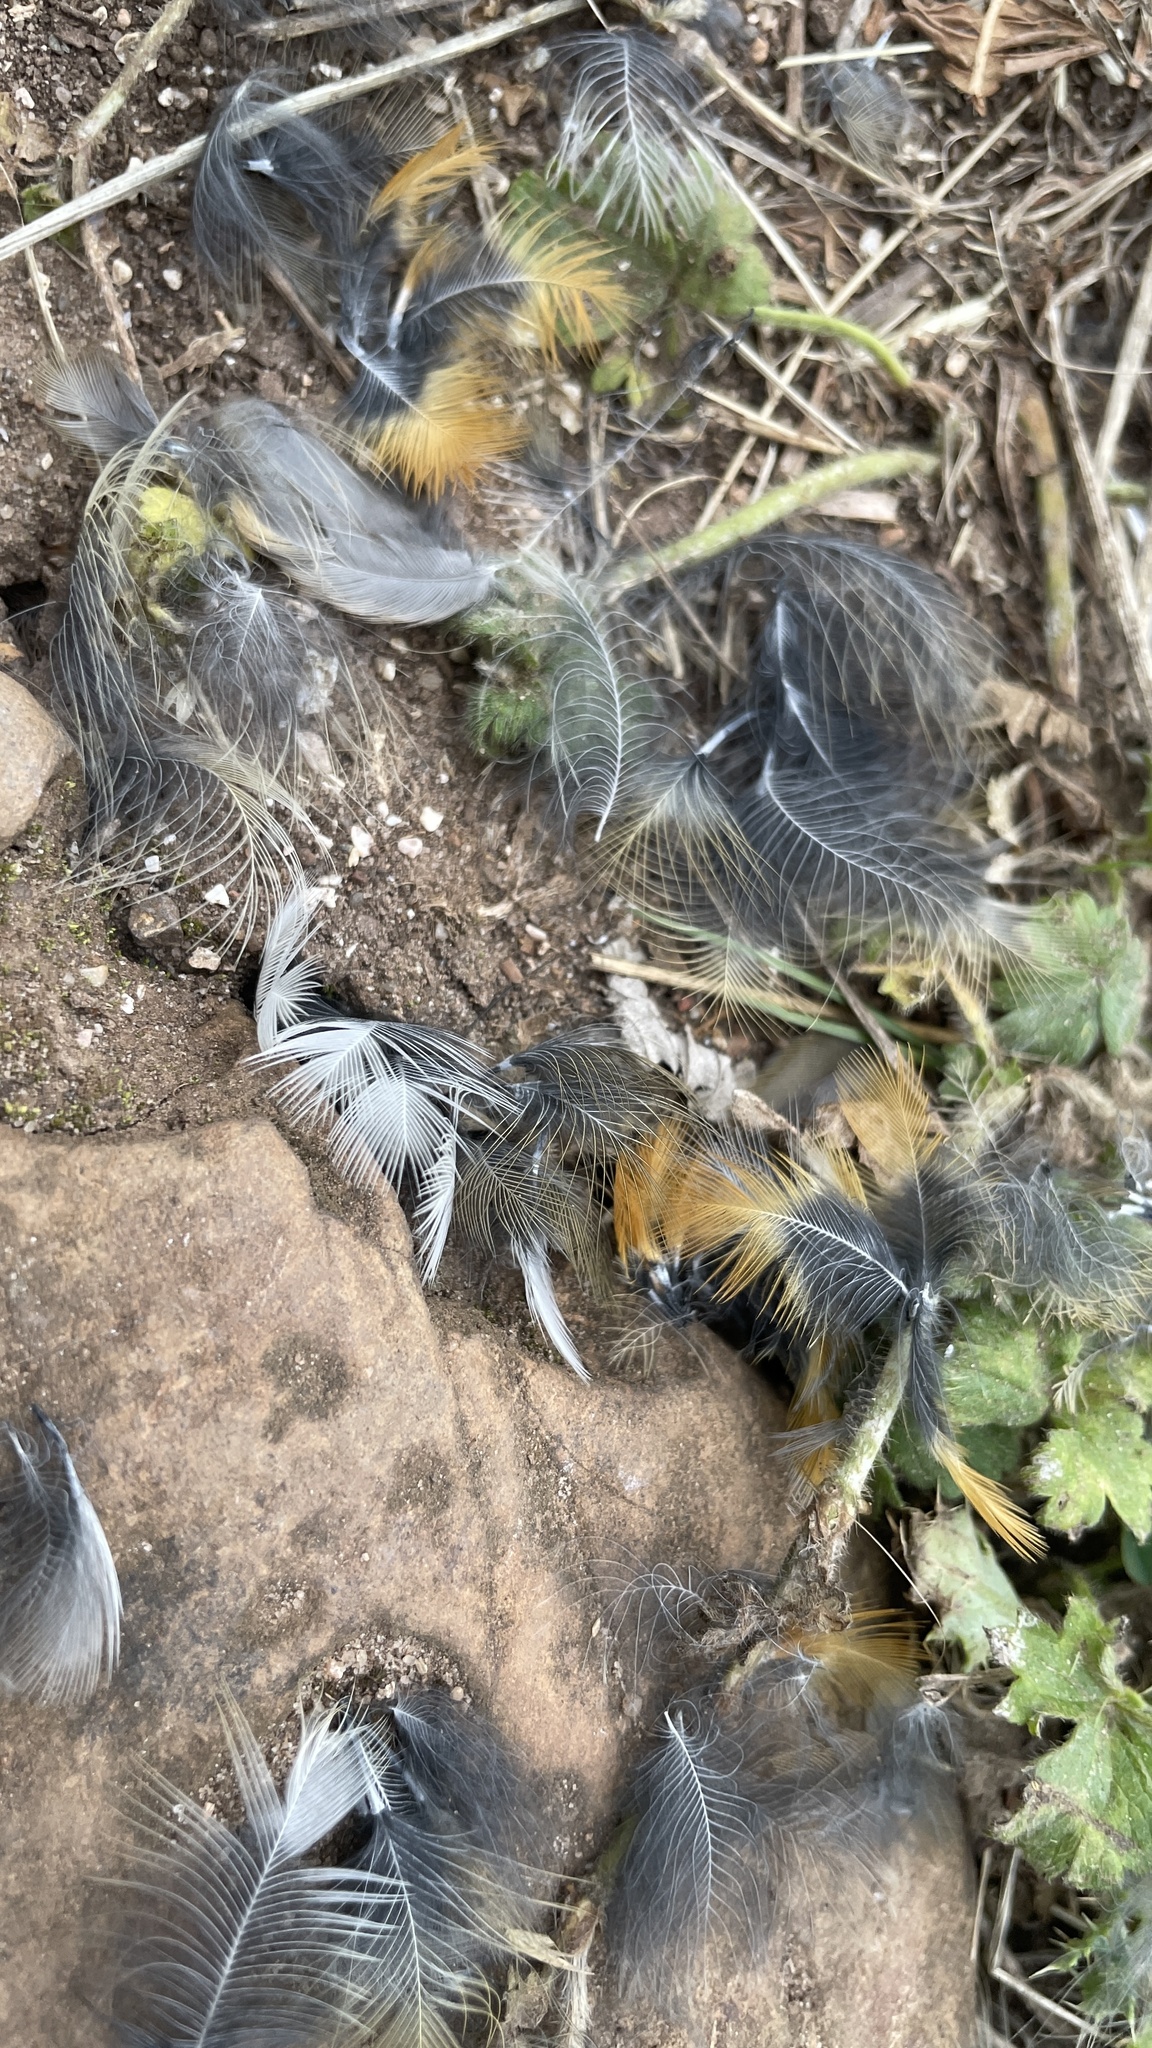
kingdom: Animalia
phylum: Chordata
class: Aves
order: Passeriformes
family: Muscicapidae
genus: Erithacus
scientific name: Erithacus rubecula
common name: European robin
